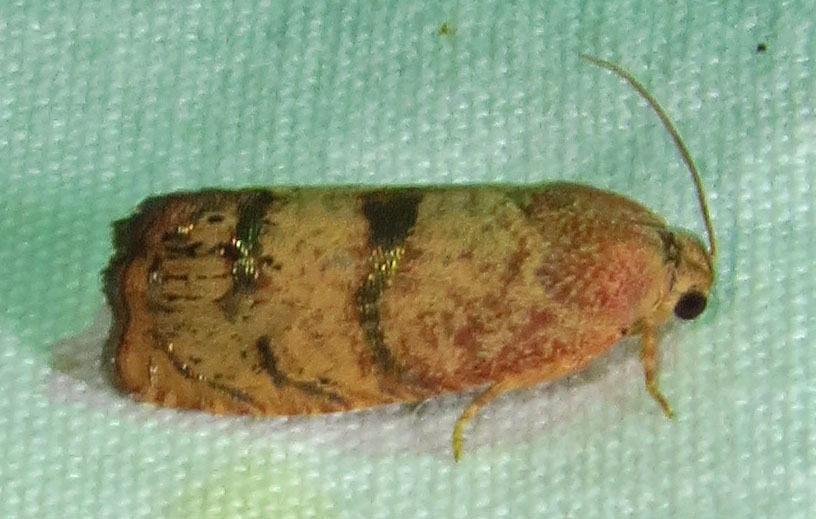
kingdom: Animalia
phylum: Arthropoda
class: Insecta
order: Lepidoptera
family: Tortricidae
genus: Cydia
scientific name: Cydia latiferreana
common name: Filbertworm moth
